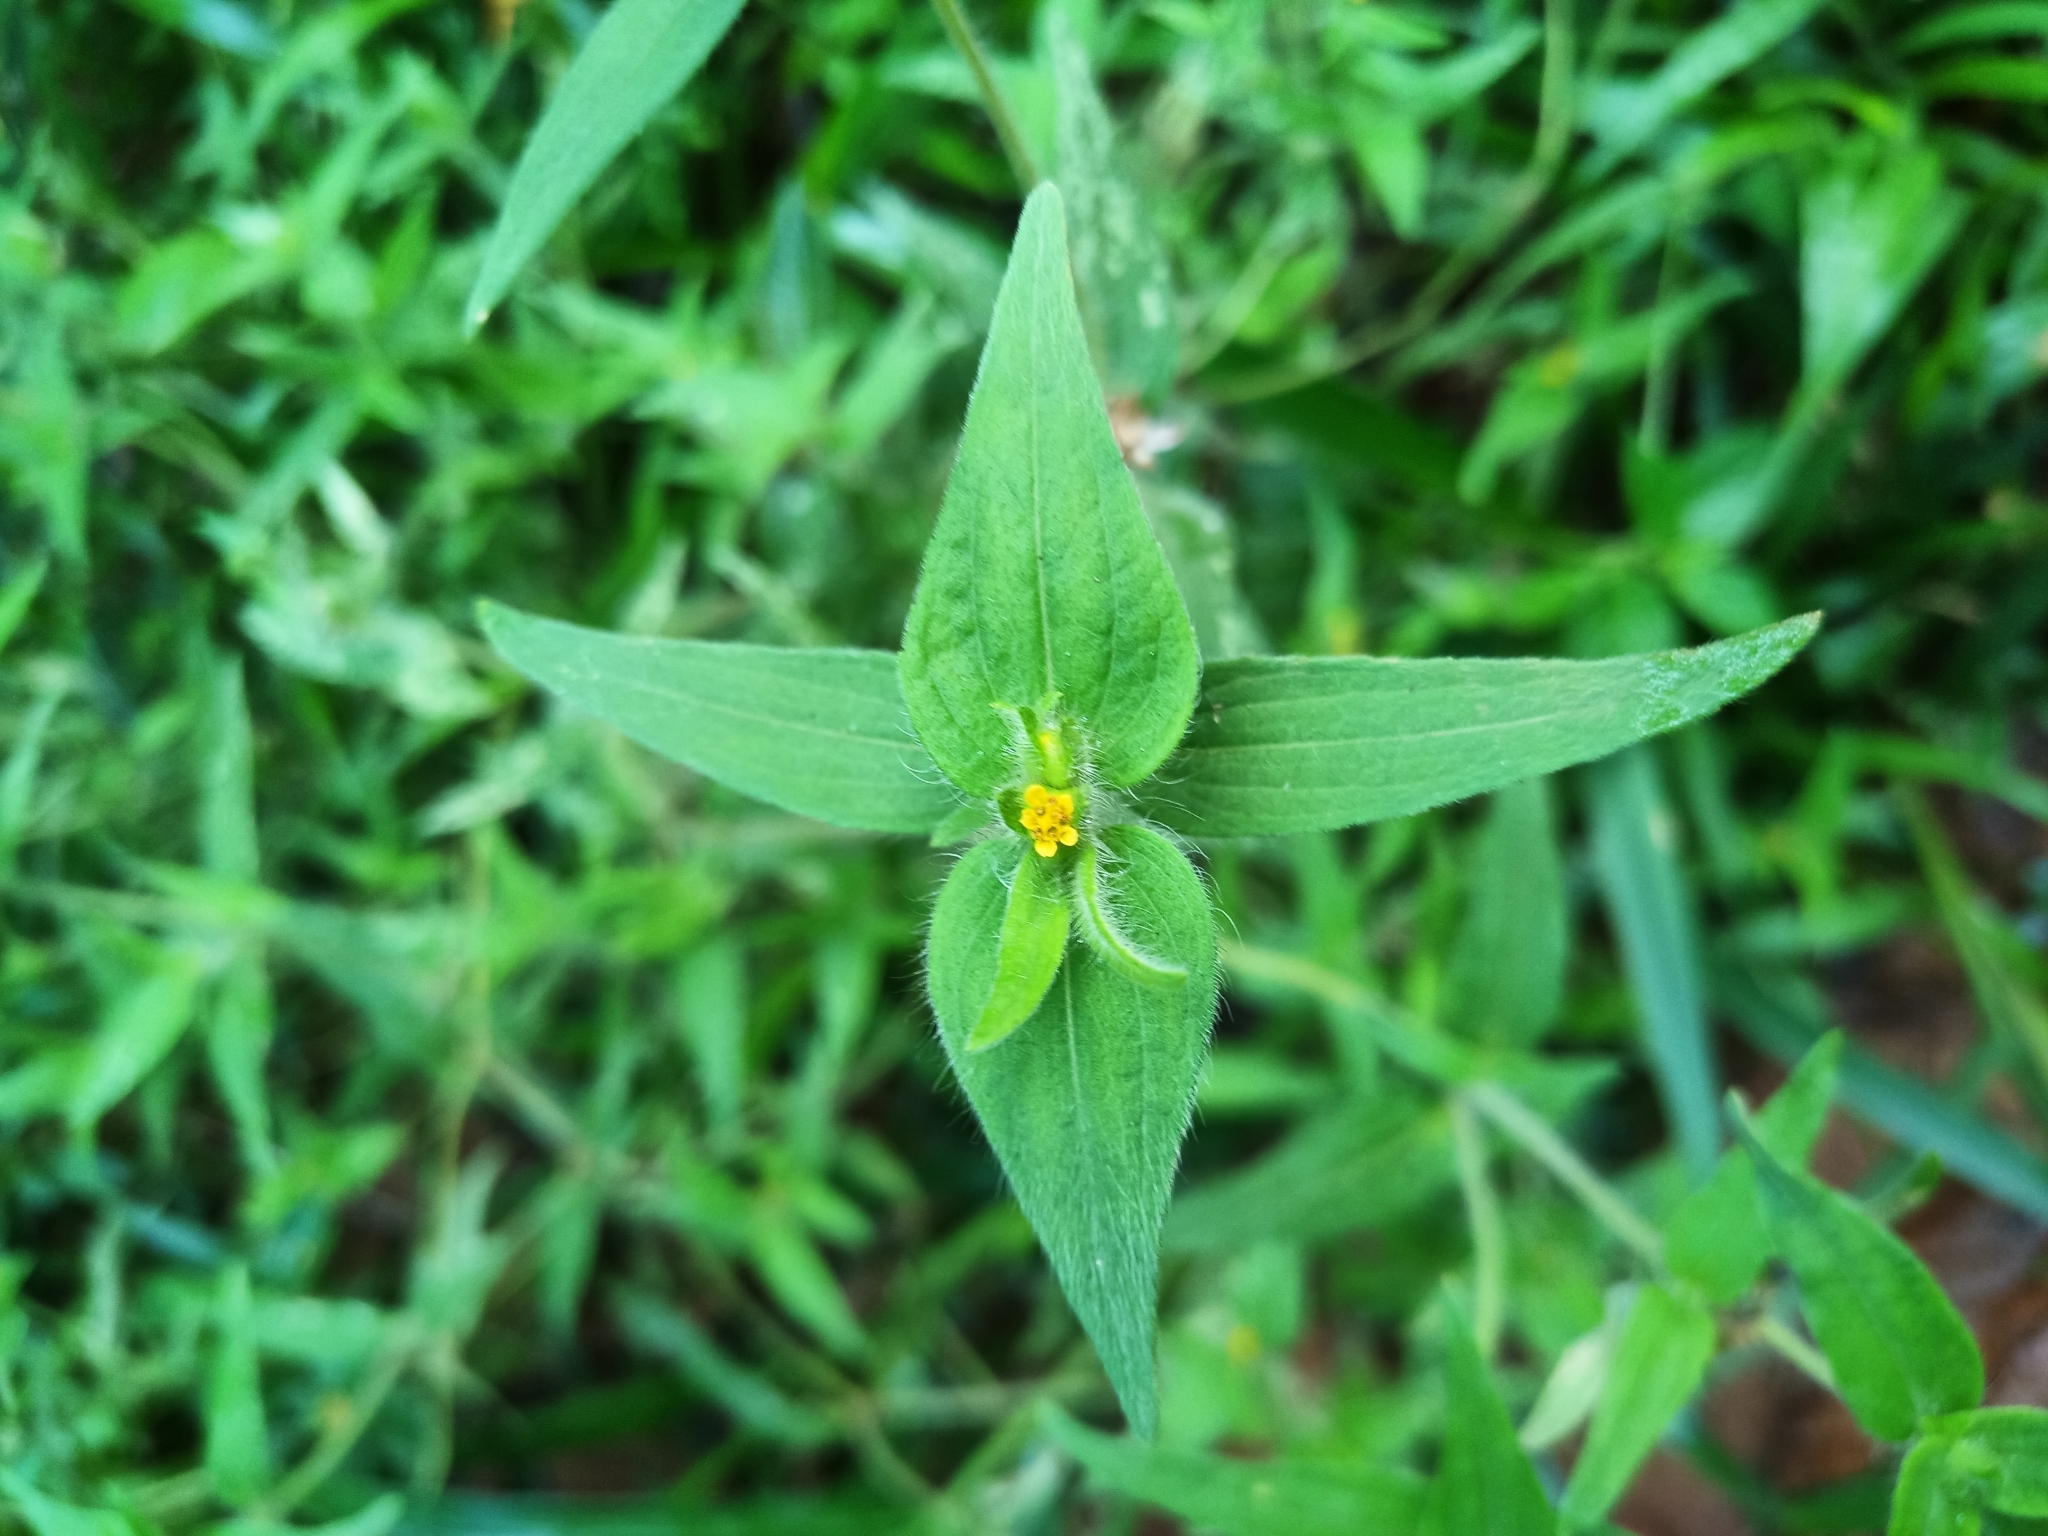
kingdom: Plantae
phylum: Tracheophyta
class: Magnoliopsida
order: Asterales
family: Asteraceae
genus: Unxia
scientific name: Unxia camphorata
